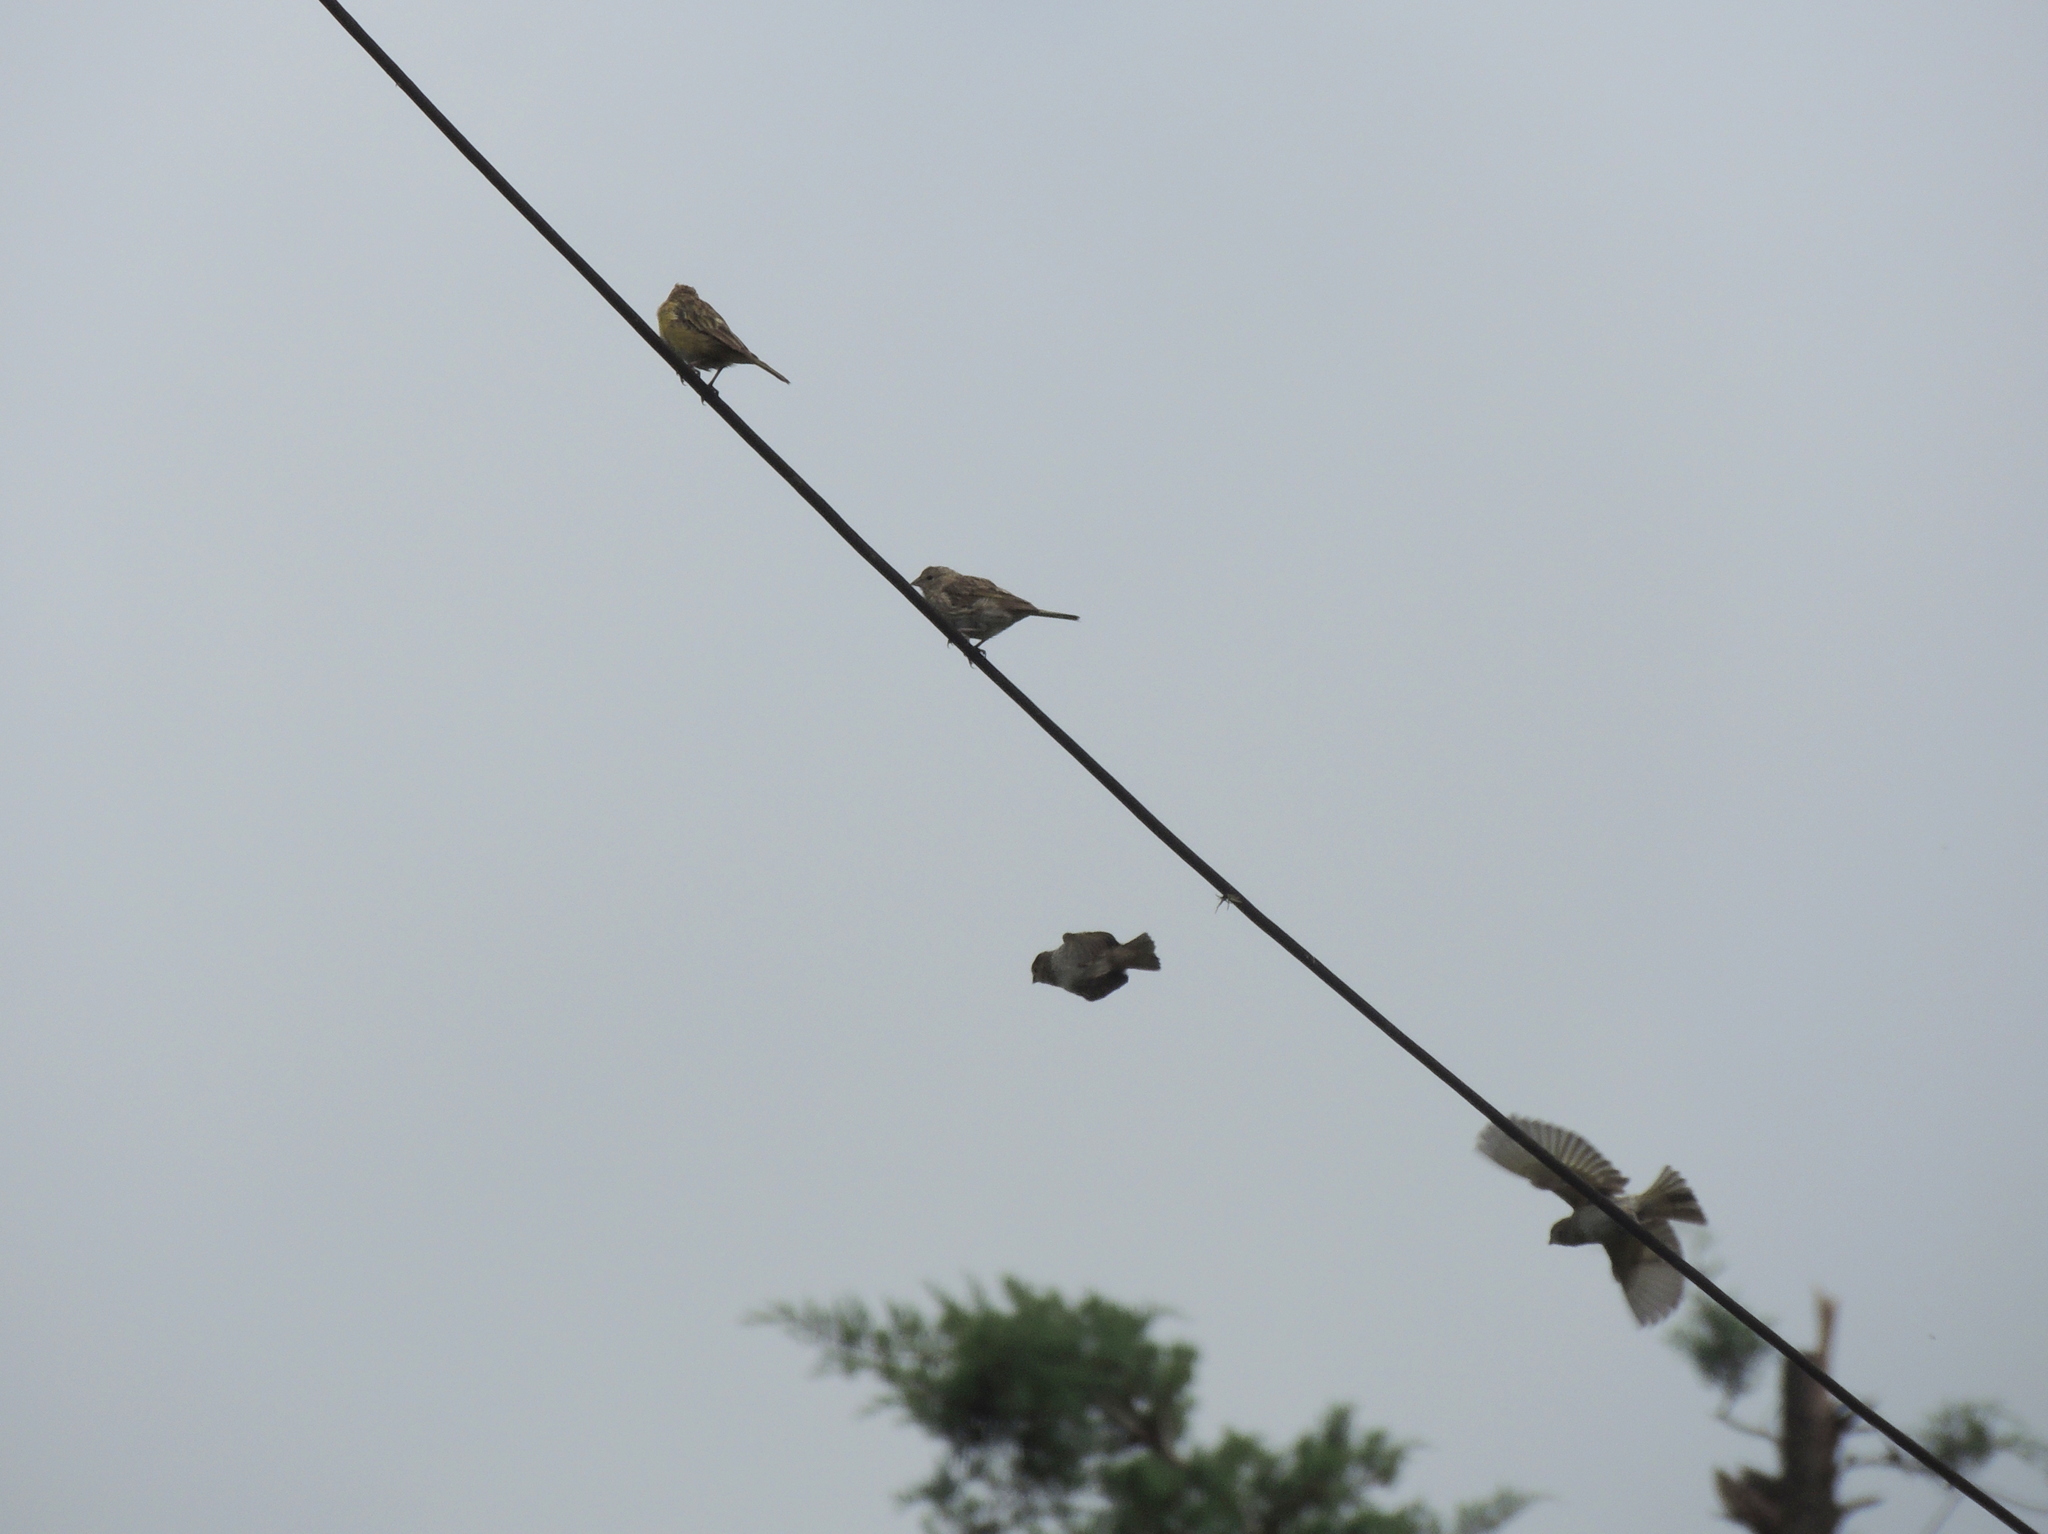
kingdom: Animalia
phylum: Chordata
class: Aves
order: Passeriformes
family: Thraupidae
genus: Sicalis
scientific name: Sicalis flaveola
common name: Saffron finch
